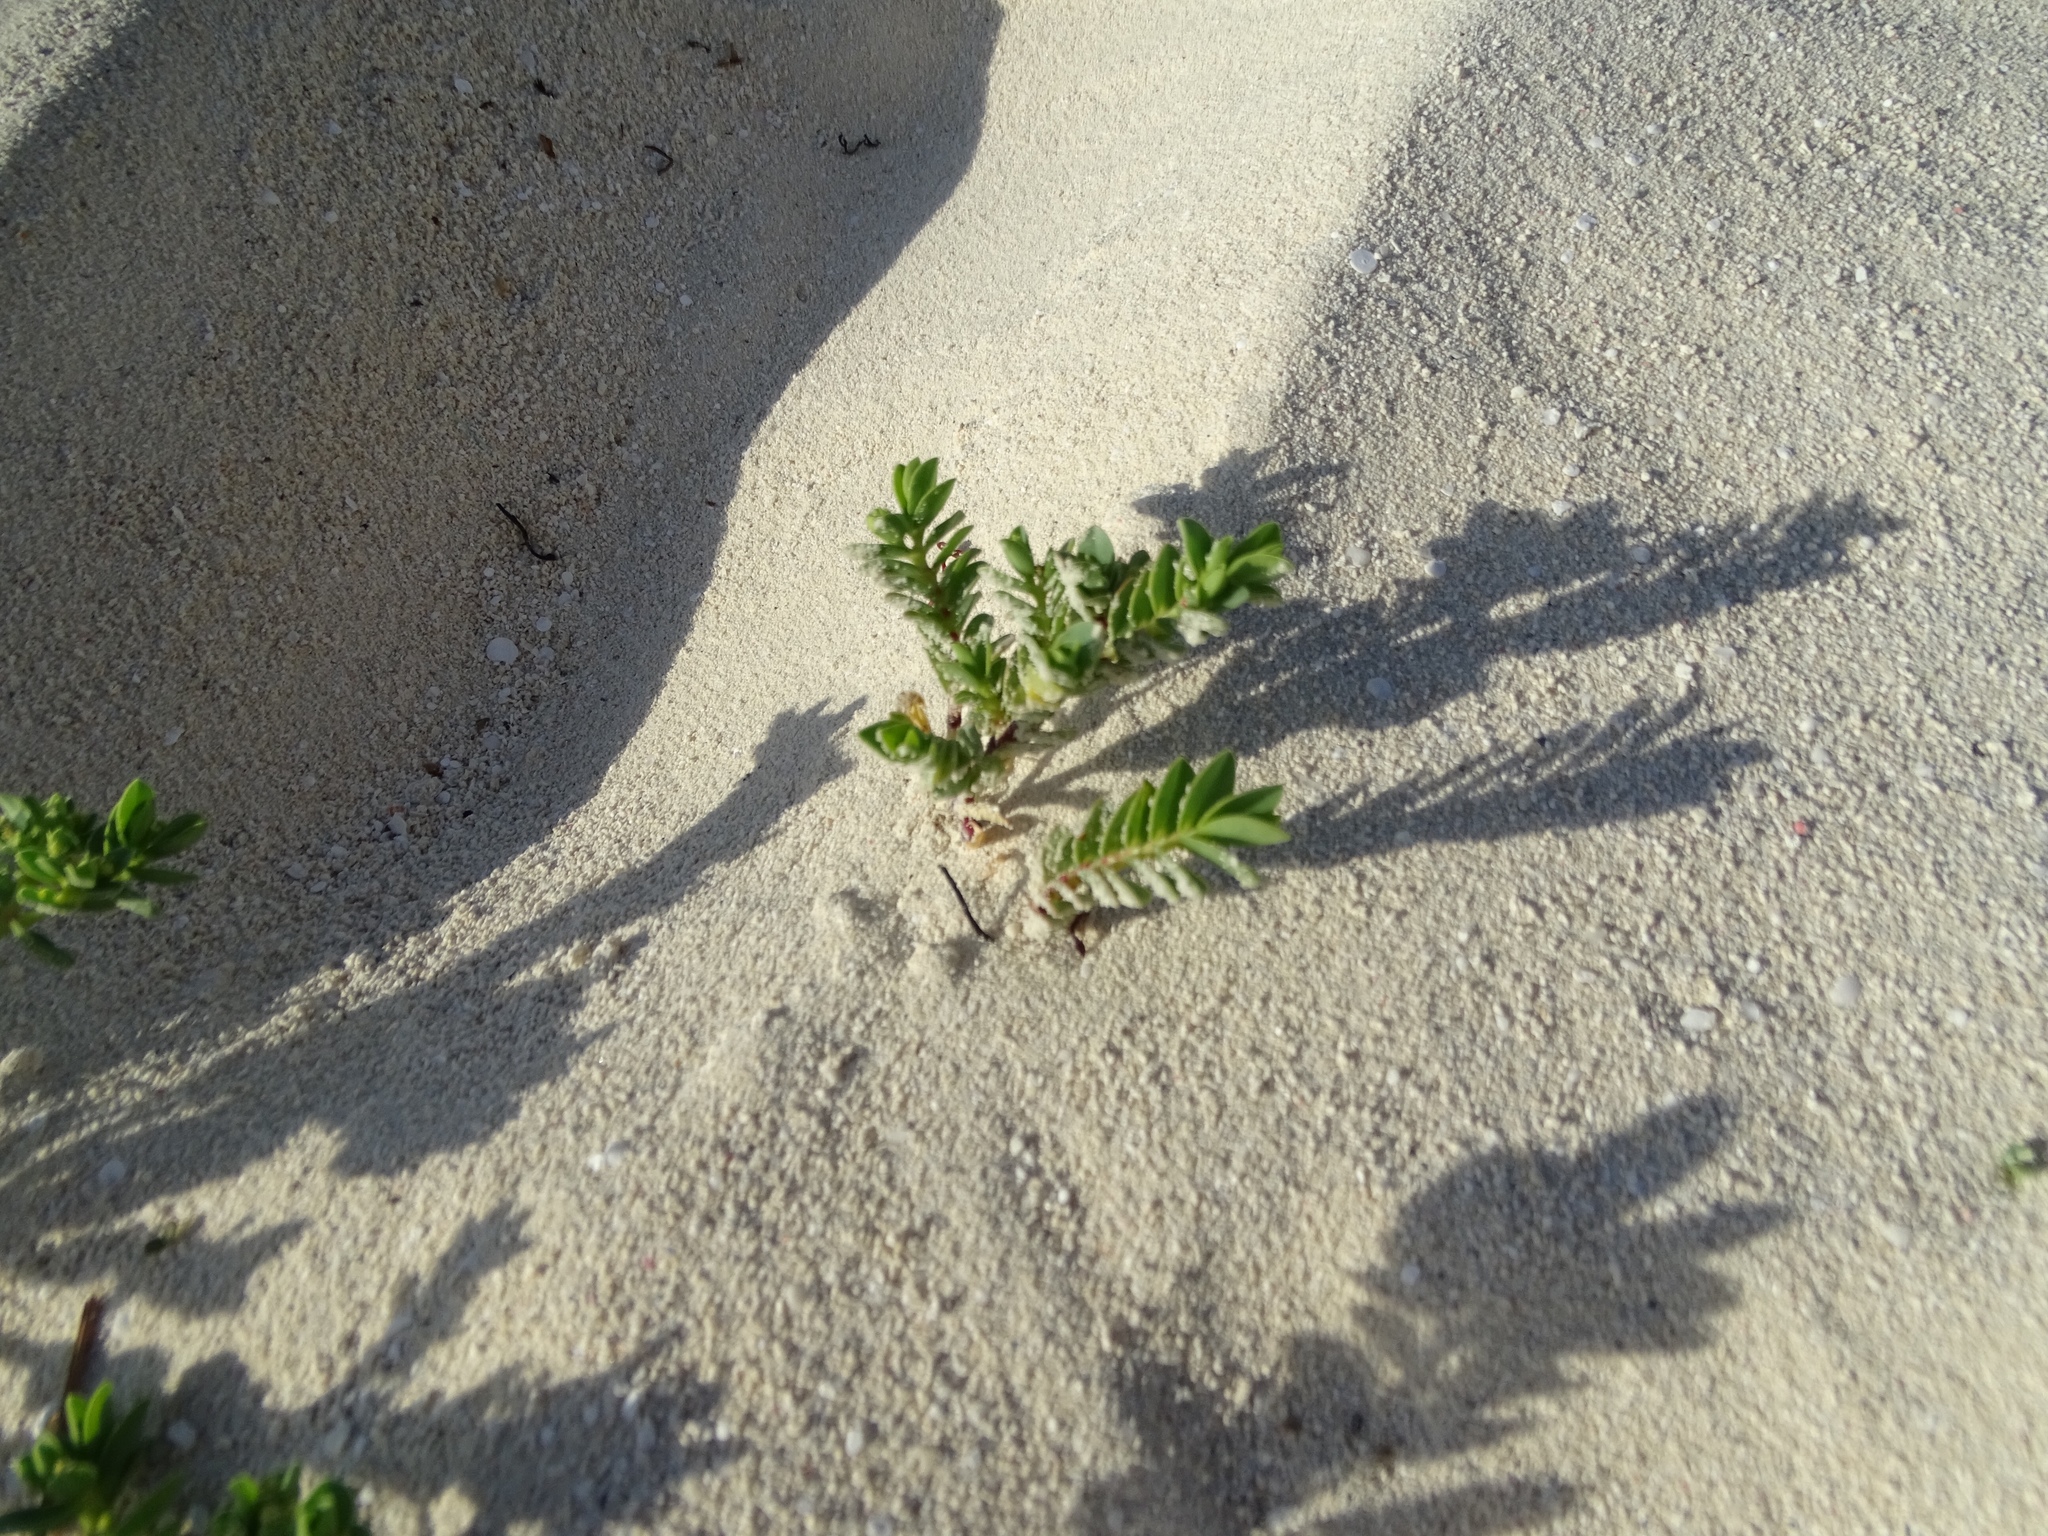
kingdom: Plantae
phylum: Tracheophyta
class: Magnoliopsida
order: Malpighiales
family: Euphorbiaceae
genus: Euphorbia
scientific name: Euphorbia mesembryanthemifolia
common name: Coastal beach sandmat
